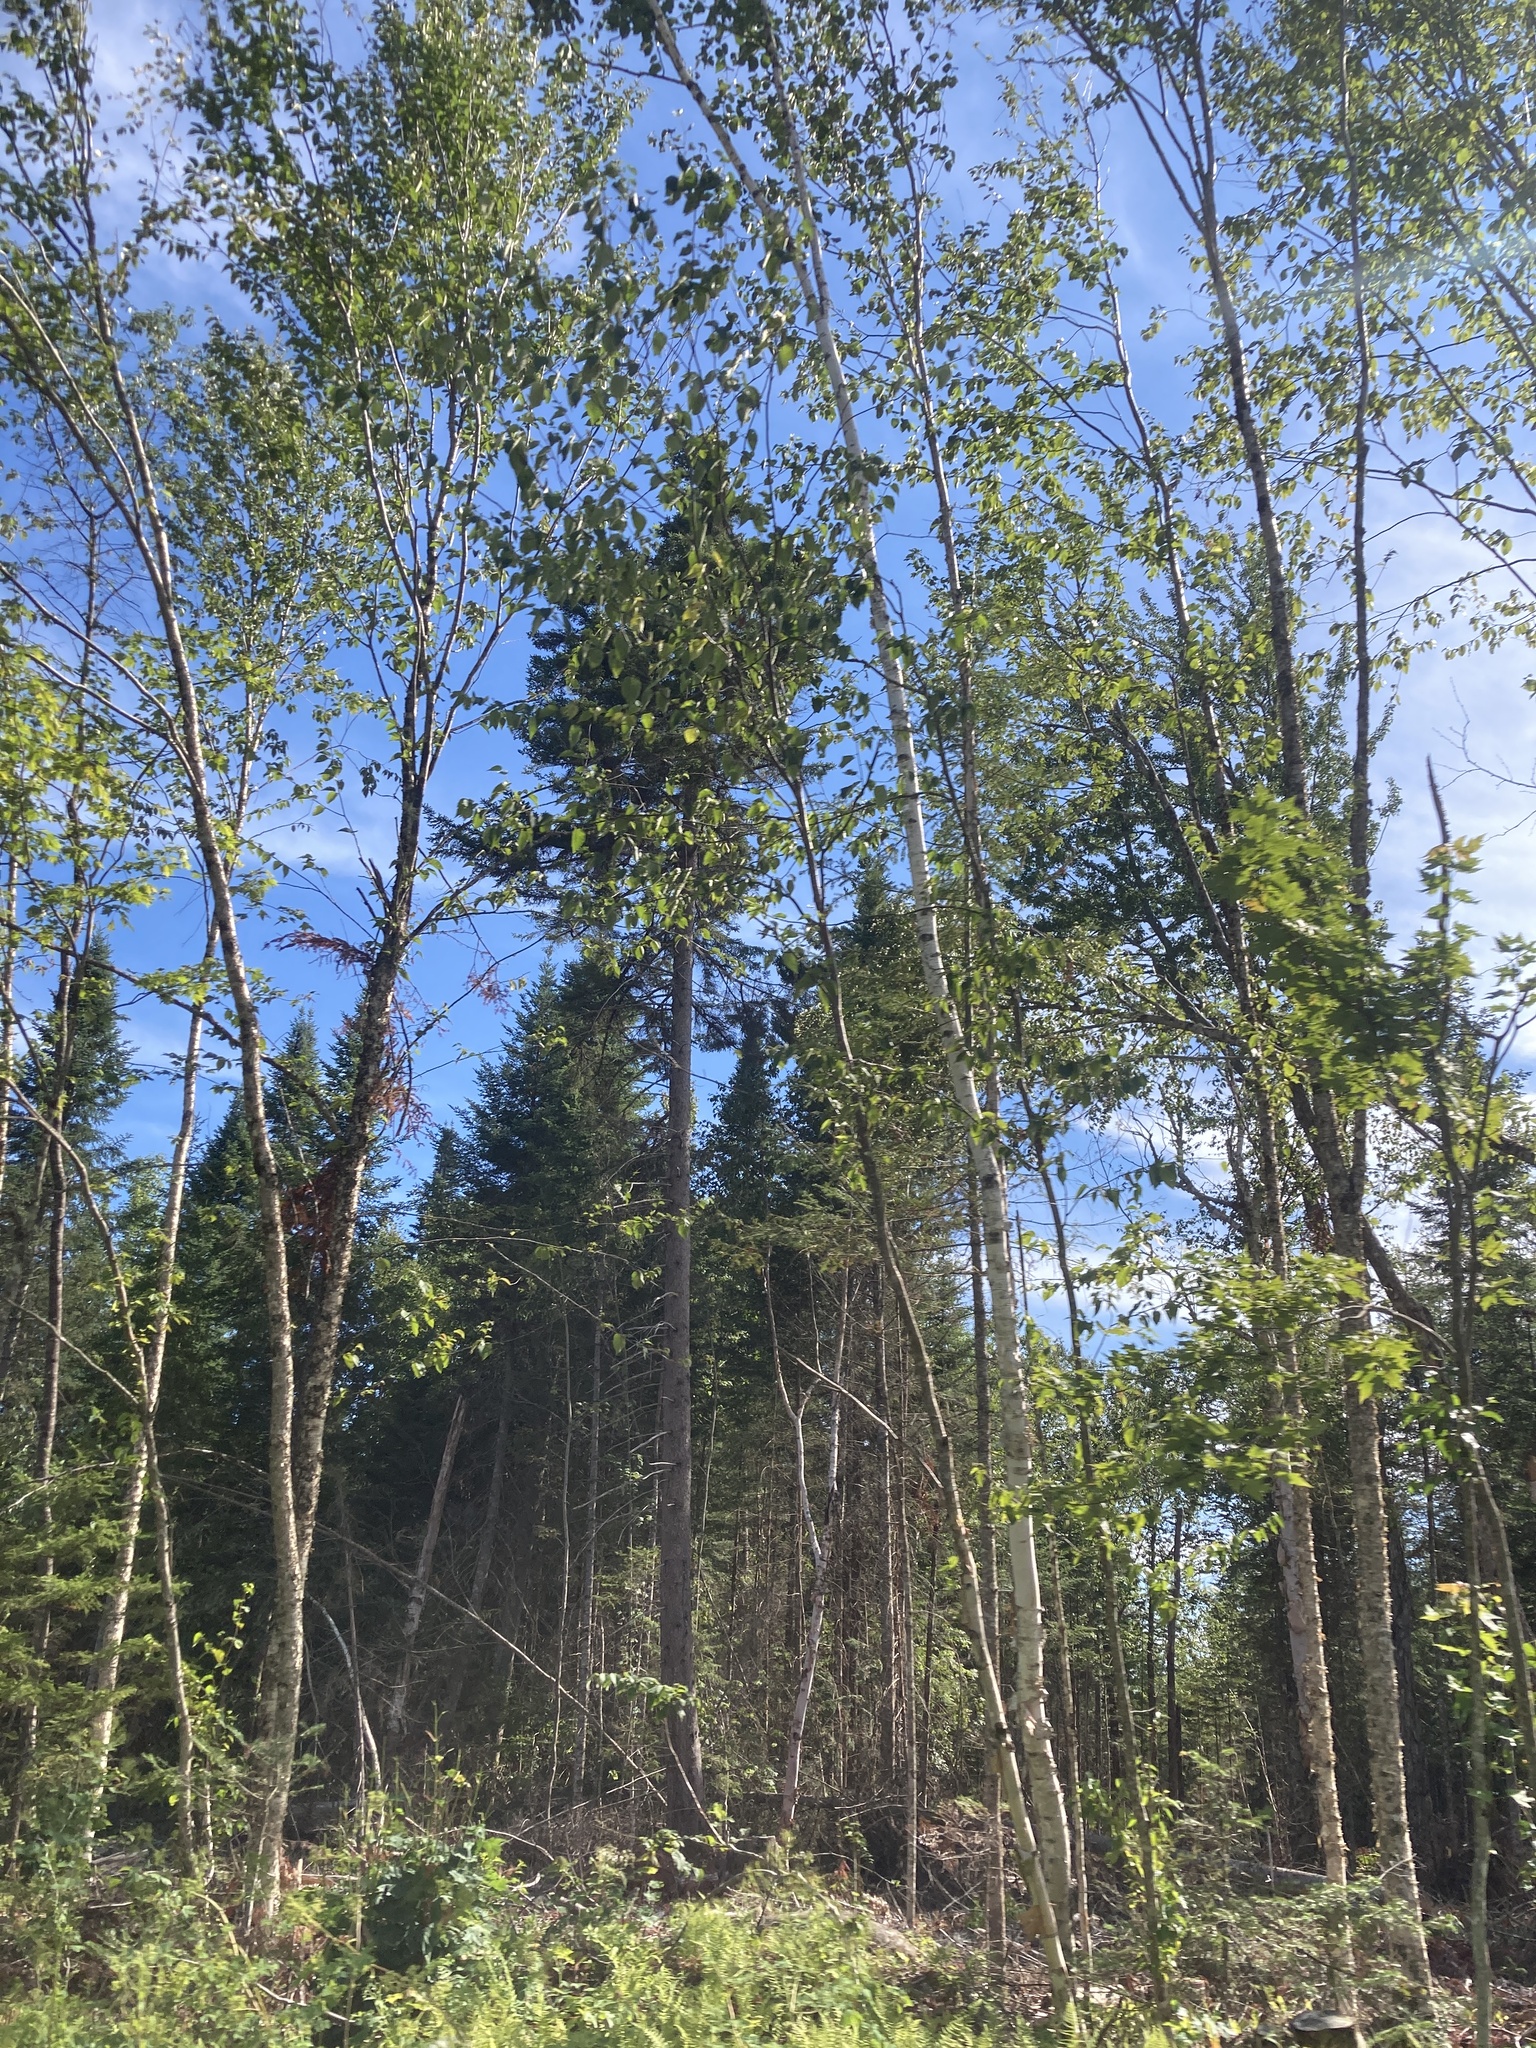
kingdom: Plantae
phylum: Tracheophyta
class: Magnoliopsida
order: Fagales
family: Betulaceae
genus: Betula
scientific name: Betula papyrifera
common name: Paper birch
